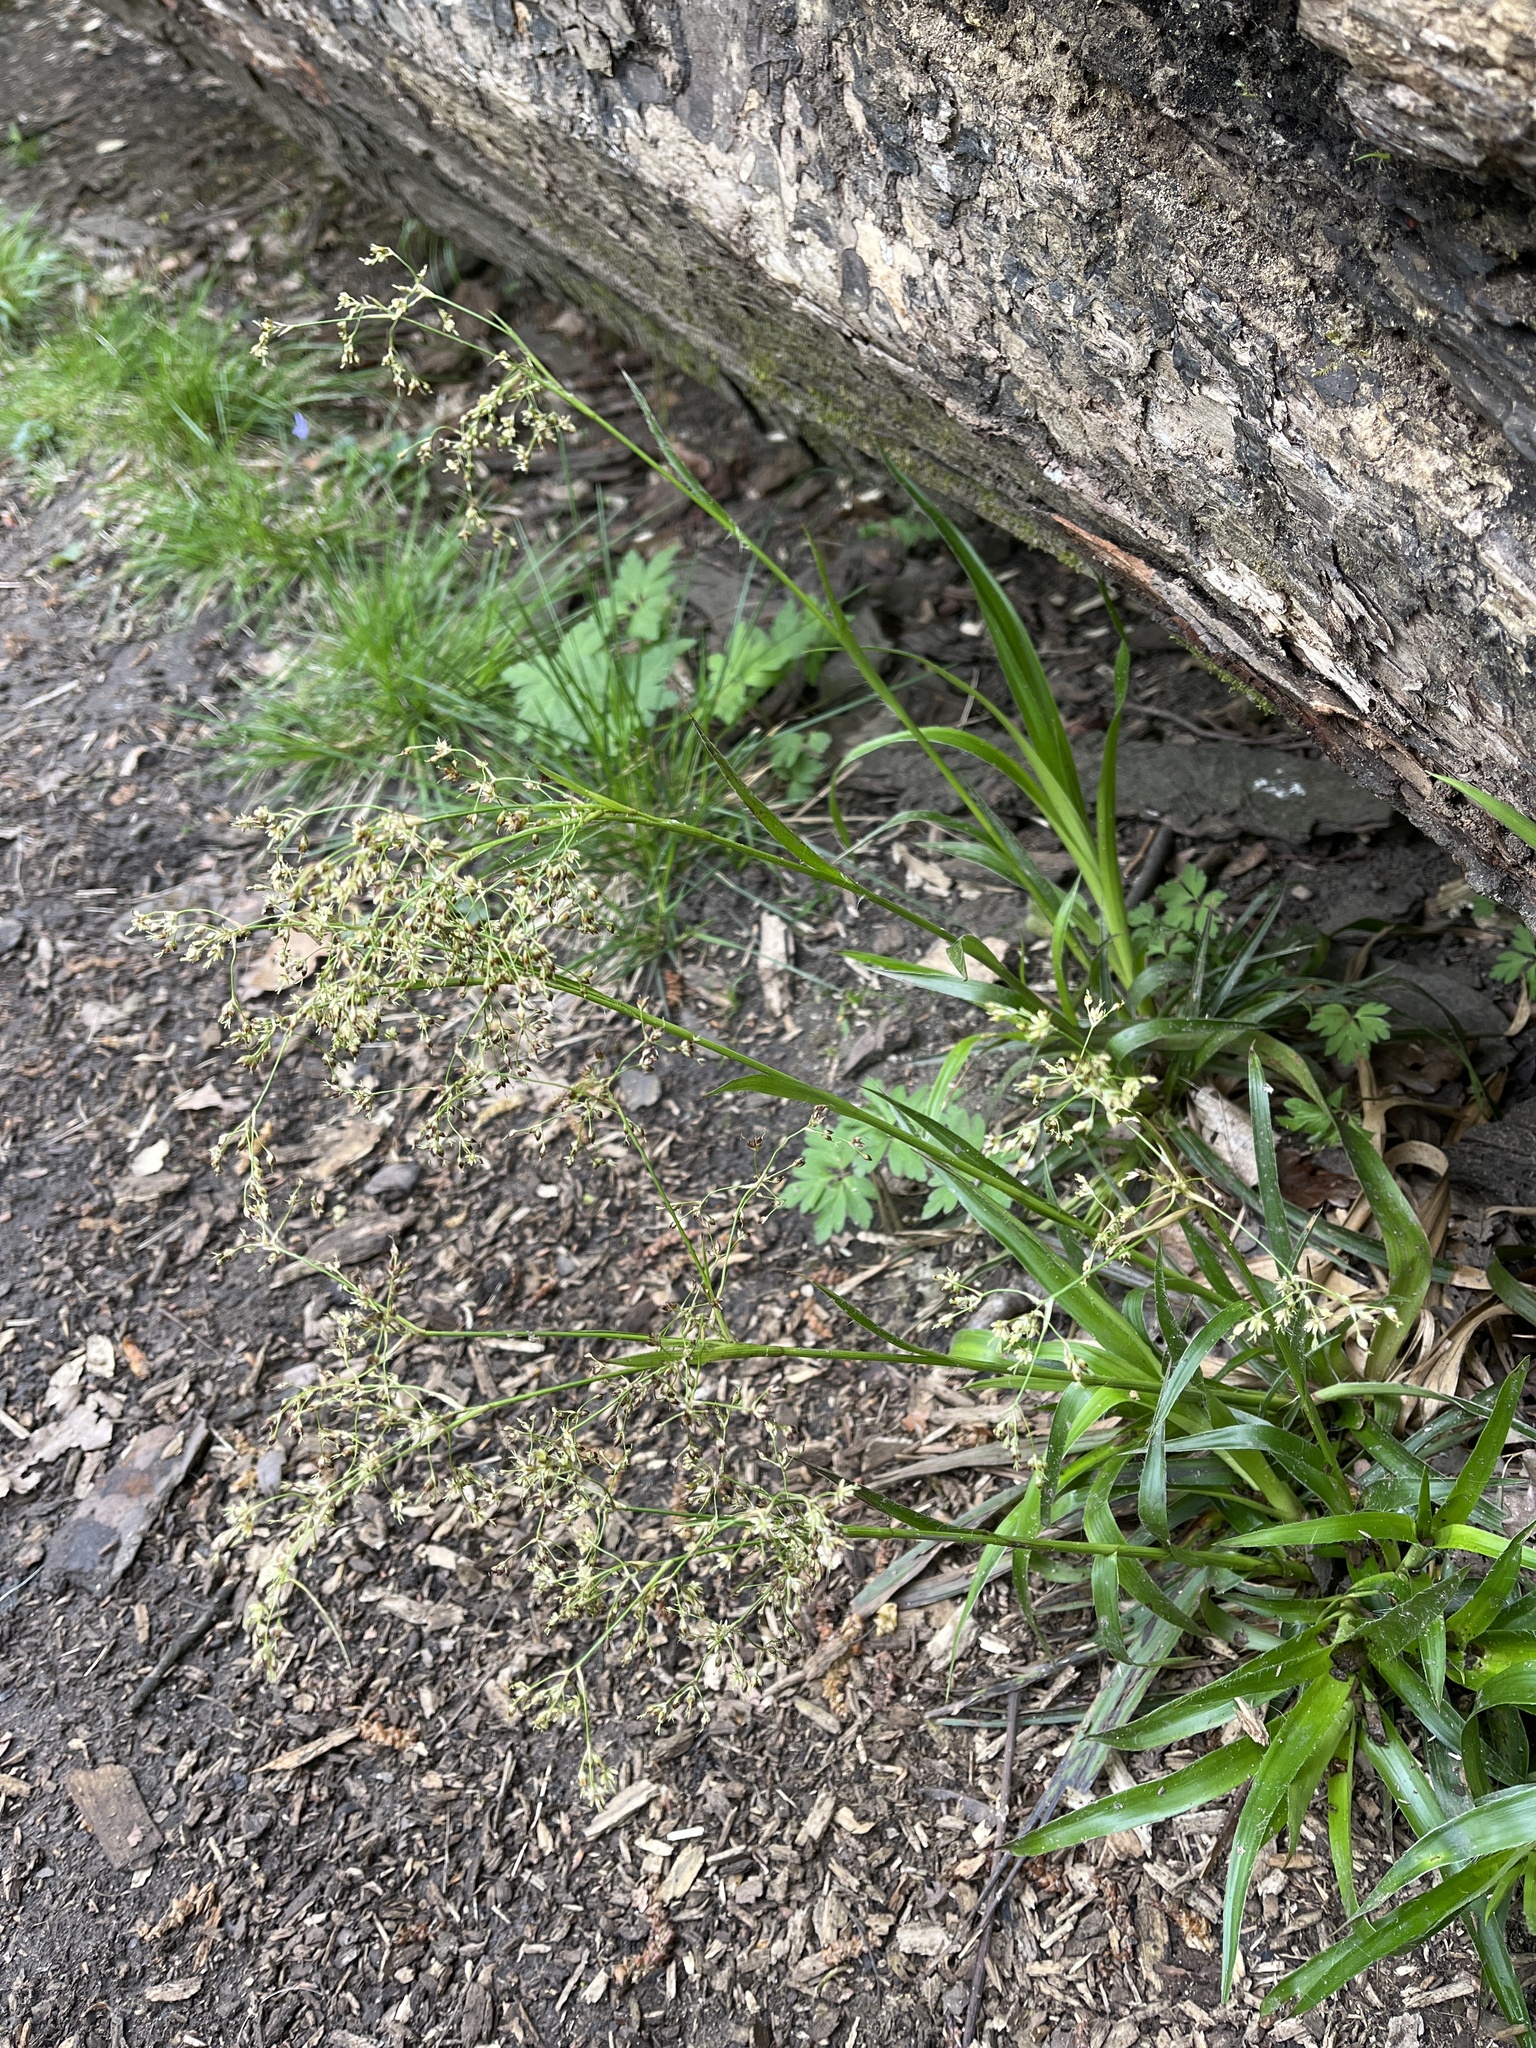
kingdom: Plantae
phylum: Tracheophyta
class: Liliopsida
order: Poales
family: Juncaceae
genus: Luzula
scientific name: Luzula sylvatica
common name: Great wood-rush
